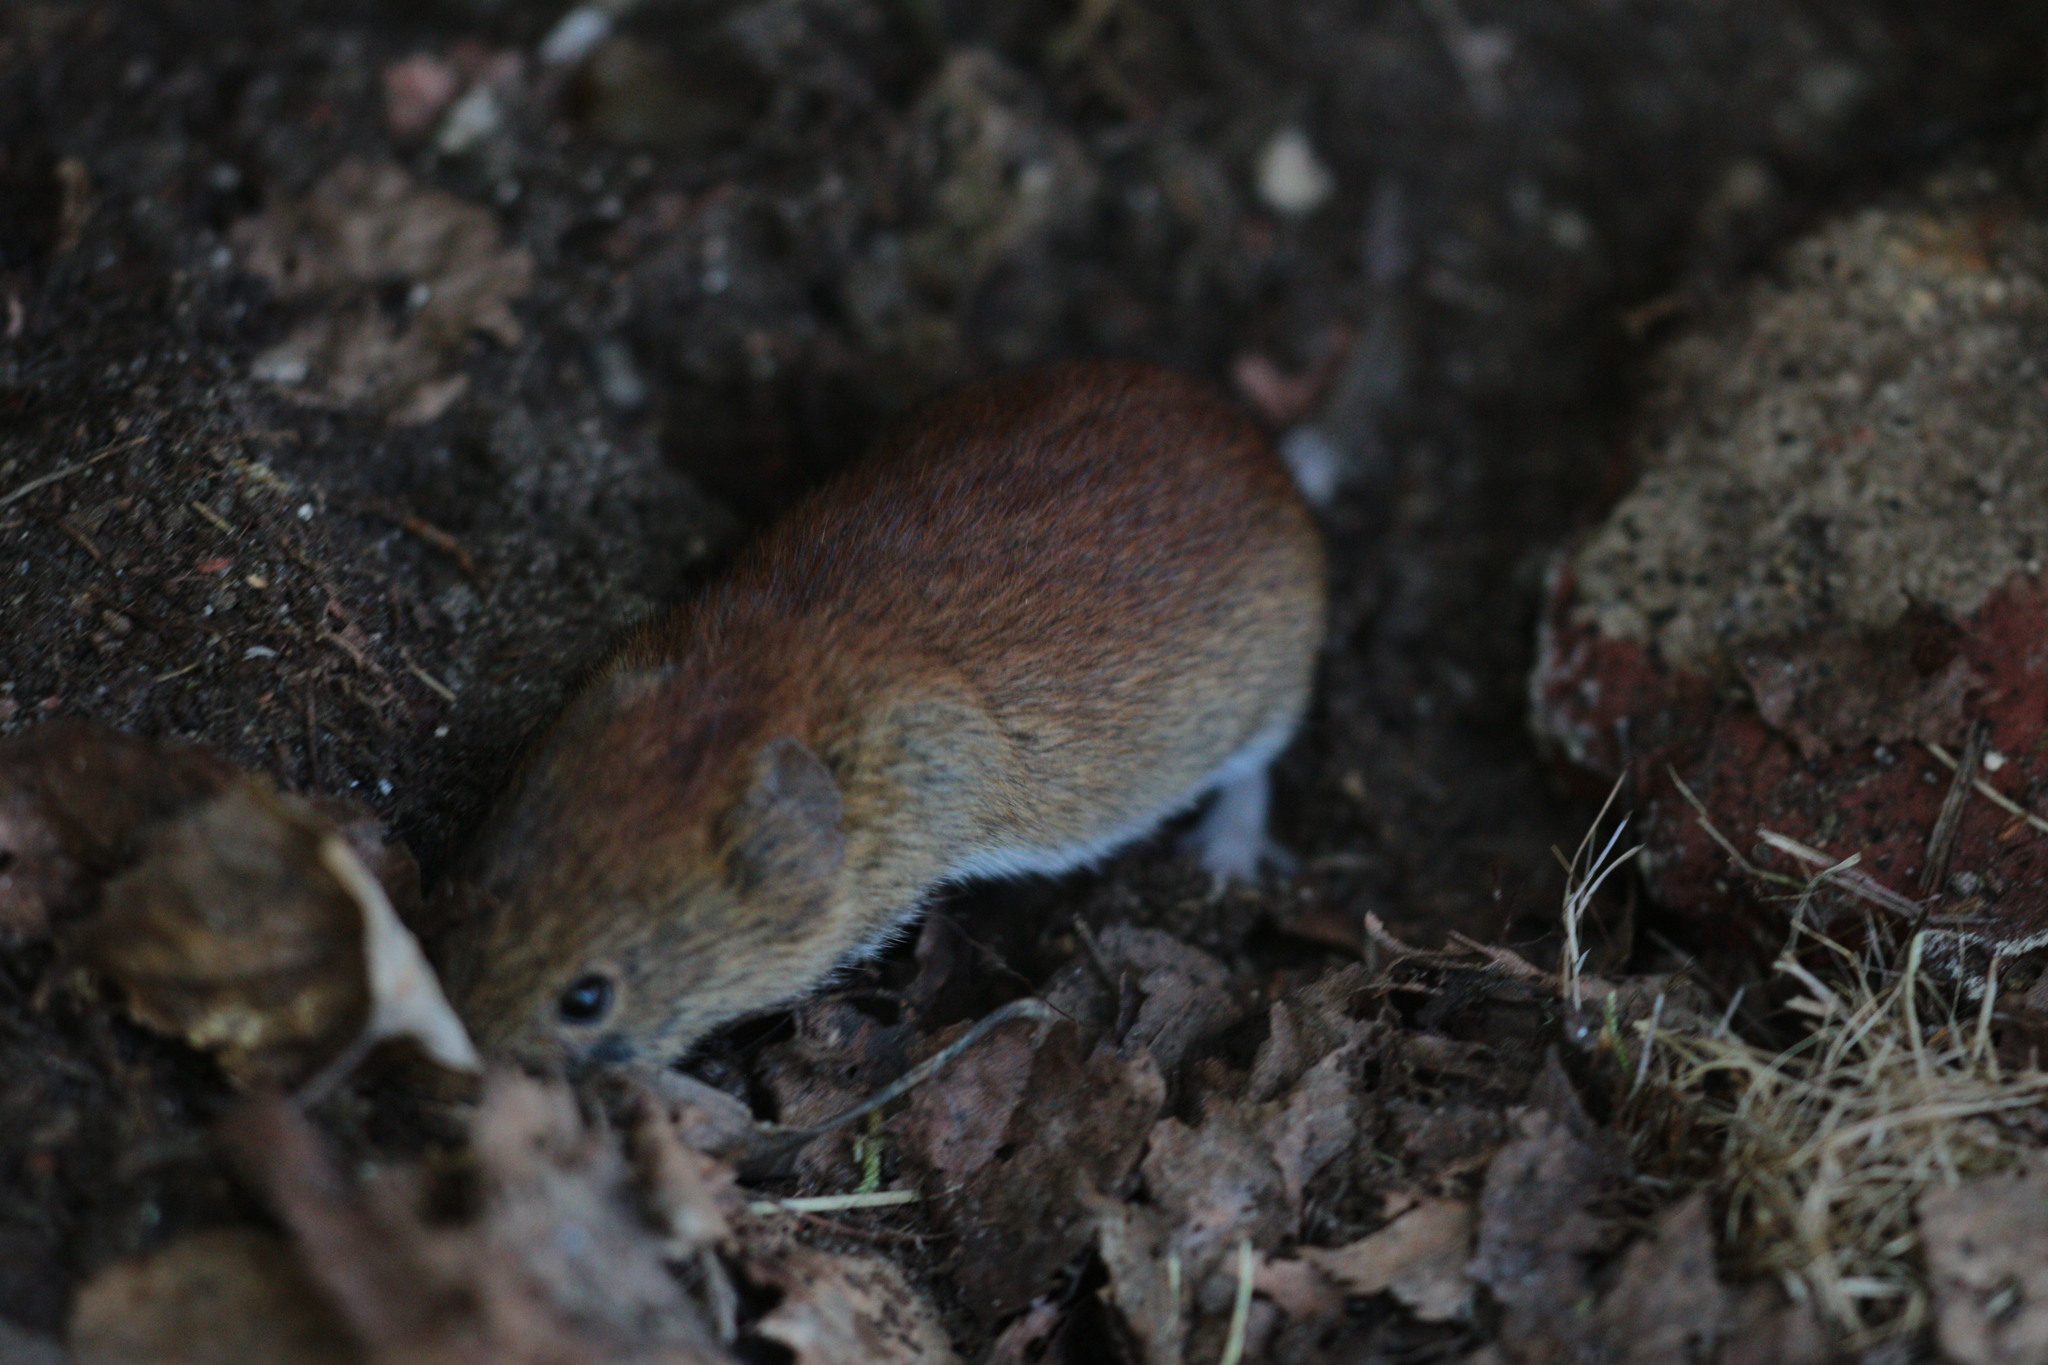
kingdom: Animalia
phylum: Chordata
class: Mammalia
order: Rodentia
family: Cricetidae
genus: Myodes
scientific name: Myodes glareolus
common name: Bank vole
